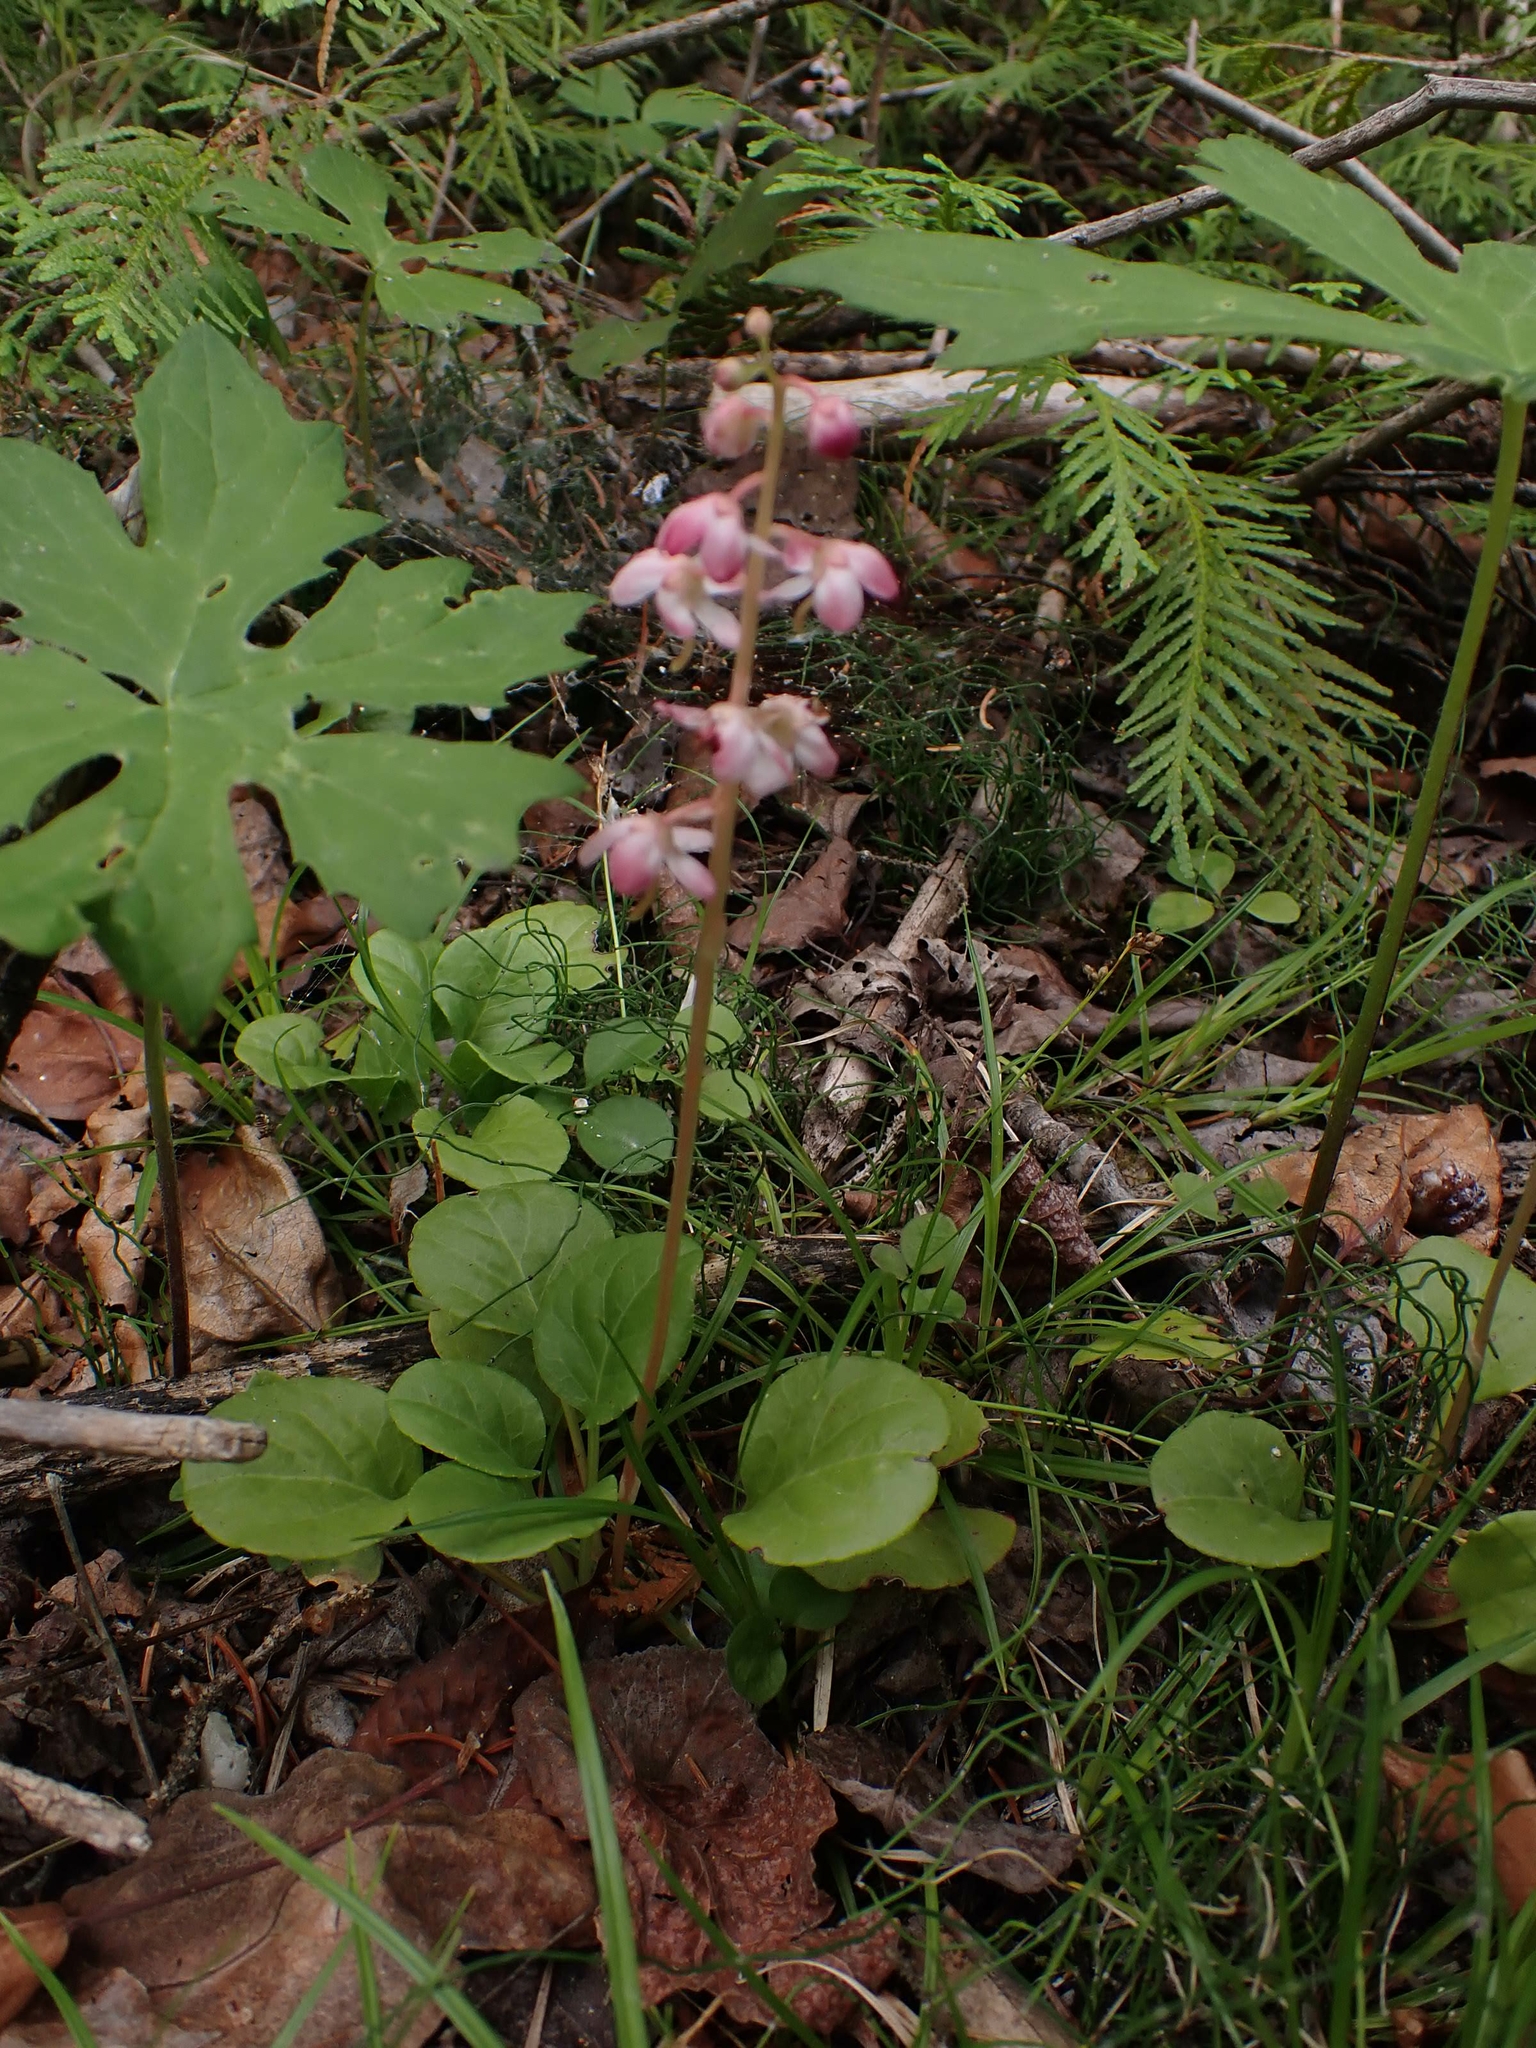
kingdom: Plantae
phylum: Tracheophyta
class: Magnoliopsida
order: Ericales
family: Ericaceae
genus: Pyrola
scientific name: Pyrola asarifolia
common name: Bog wintergreen
